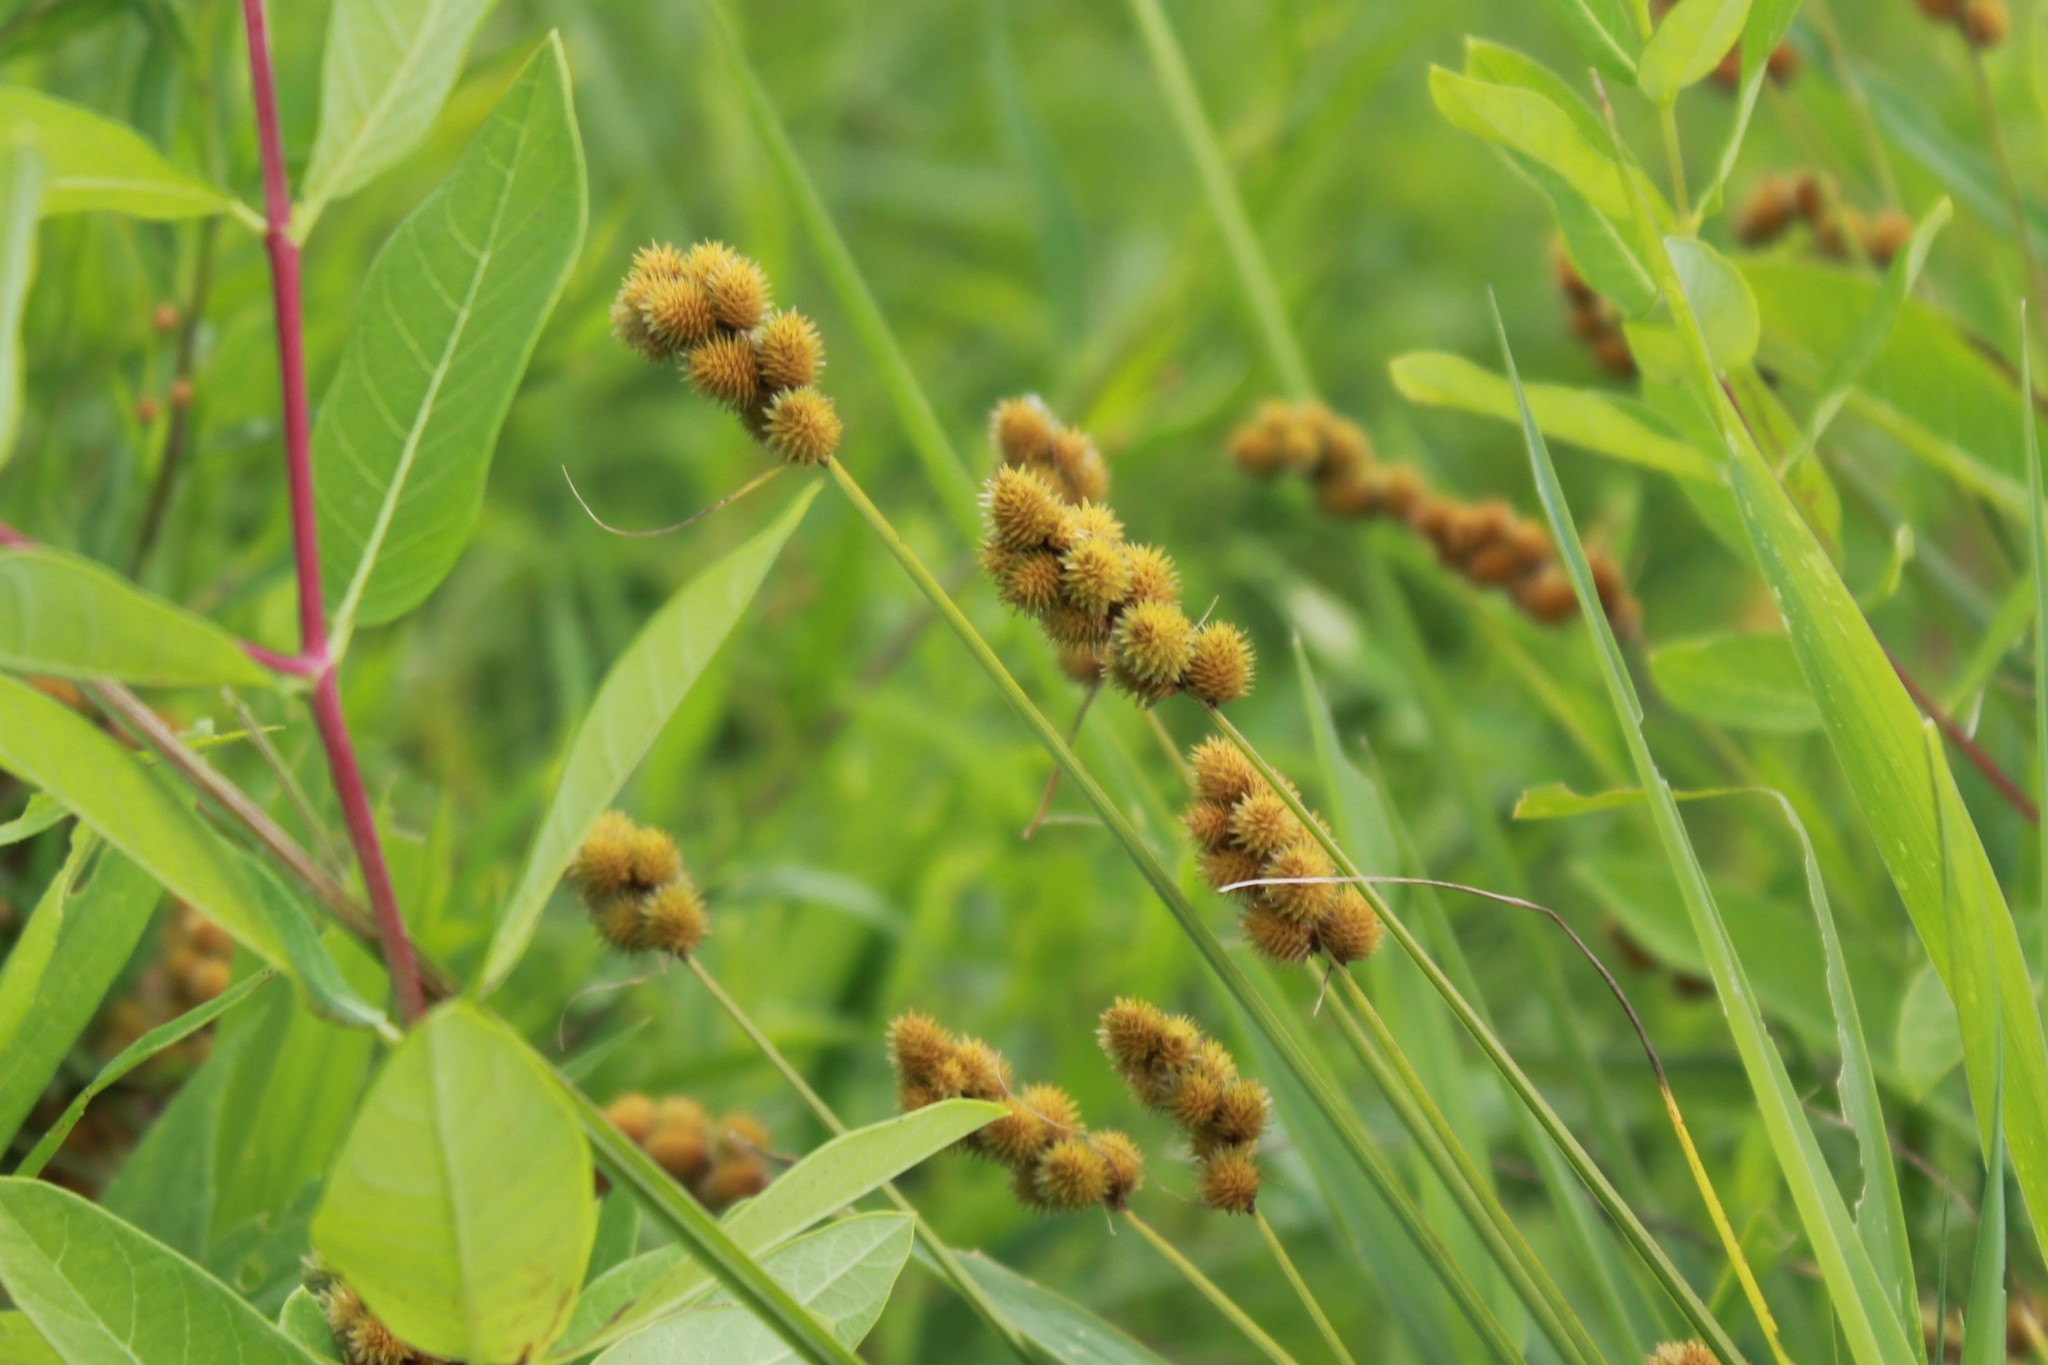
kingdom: Plantae
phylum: Tracheophyta
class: Liliopsida
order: Poales
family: Cyperaceae
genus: Carex
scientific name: Carex cristatella
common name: Crested oval sedge
